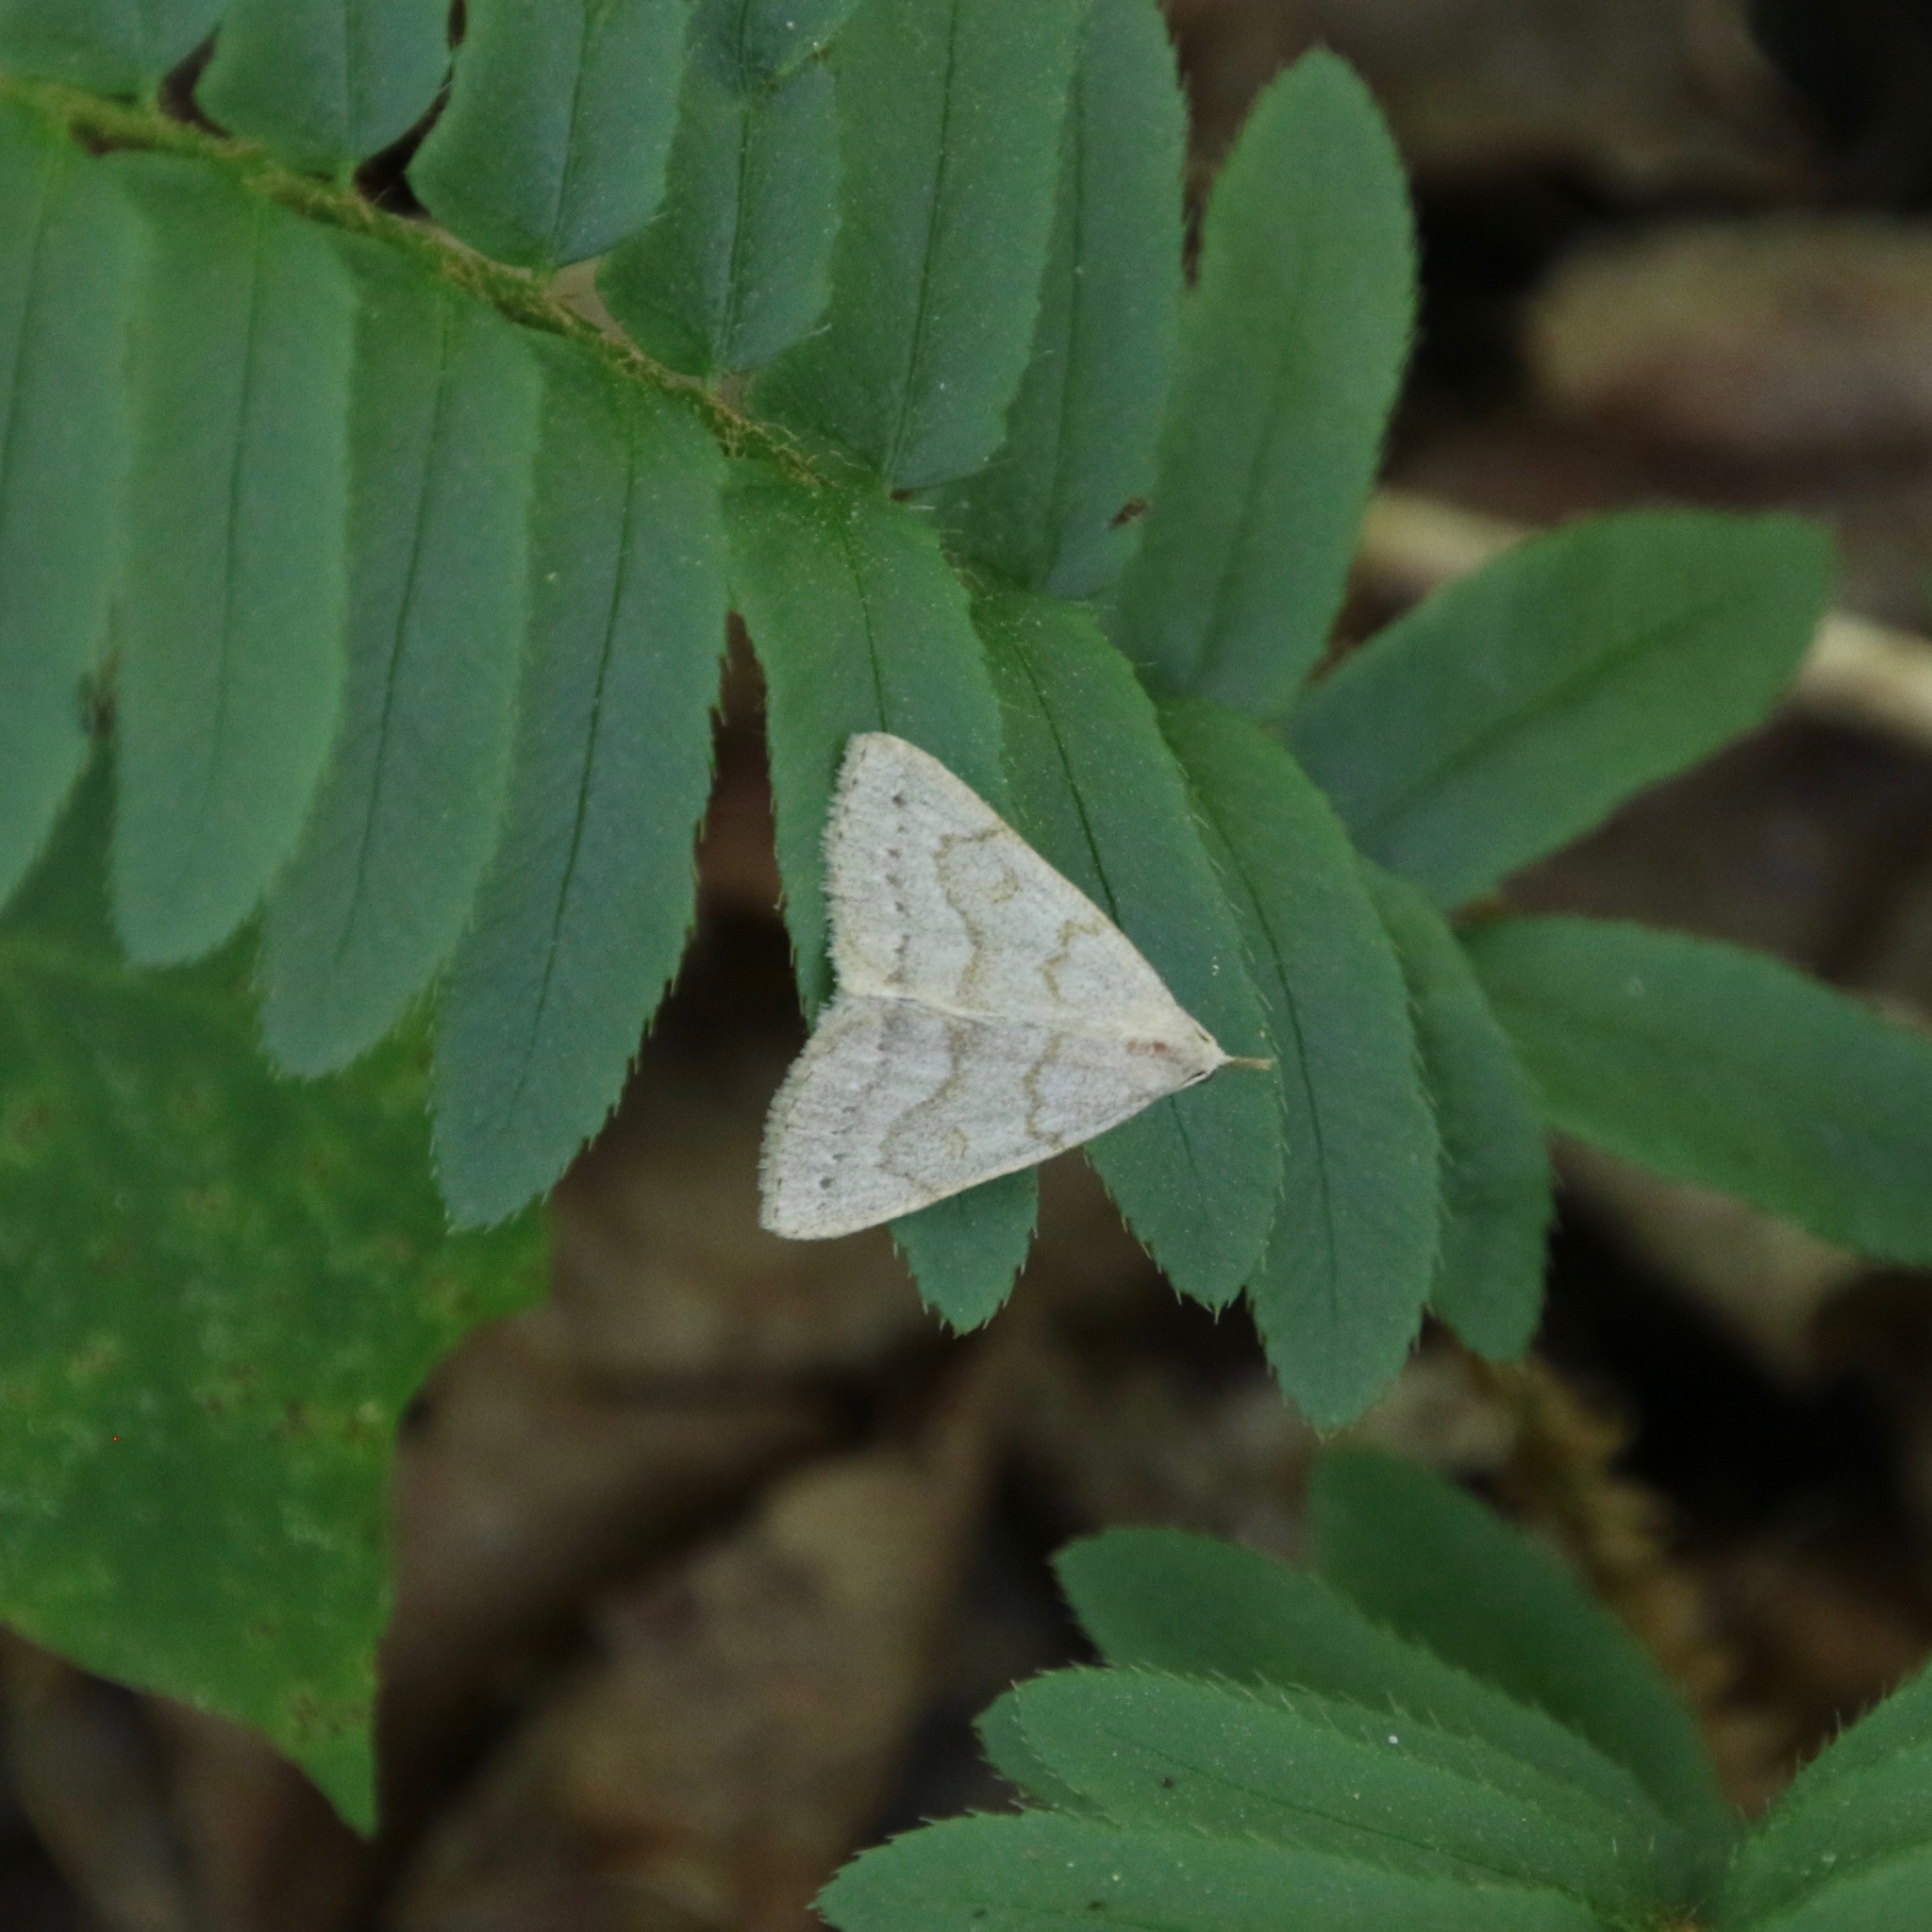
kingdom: Animalia
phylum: Arthropoda
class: Insecta
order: Lepidoptera
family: Erebidae
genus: Macrochilo
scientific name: Macrochilo morbidalis
